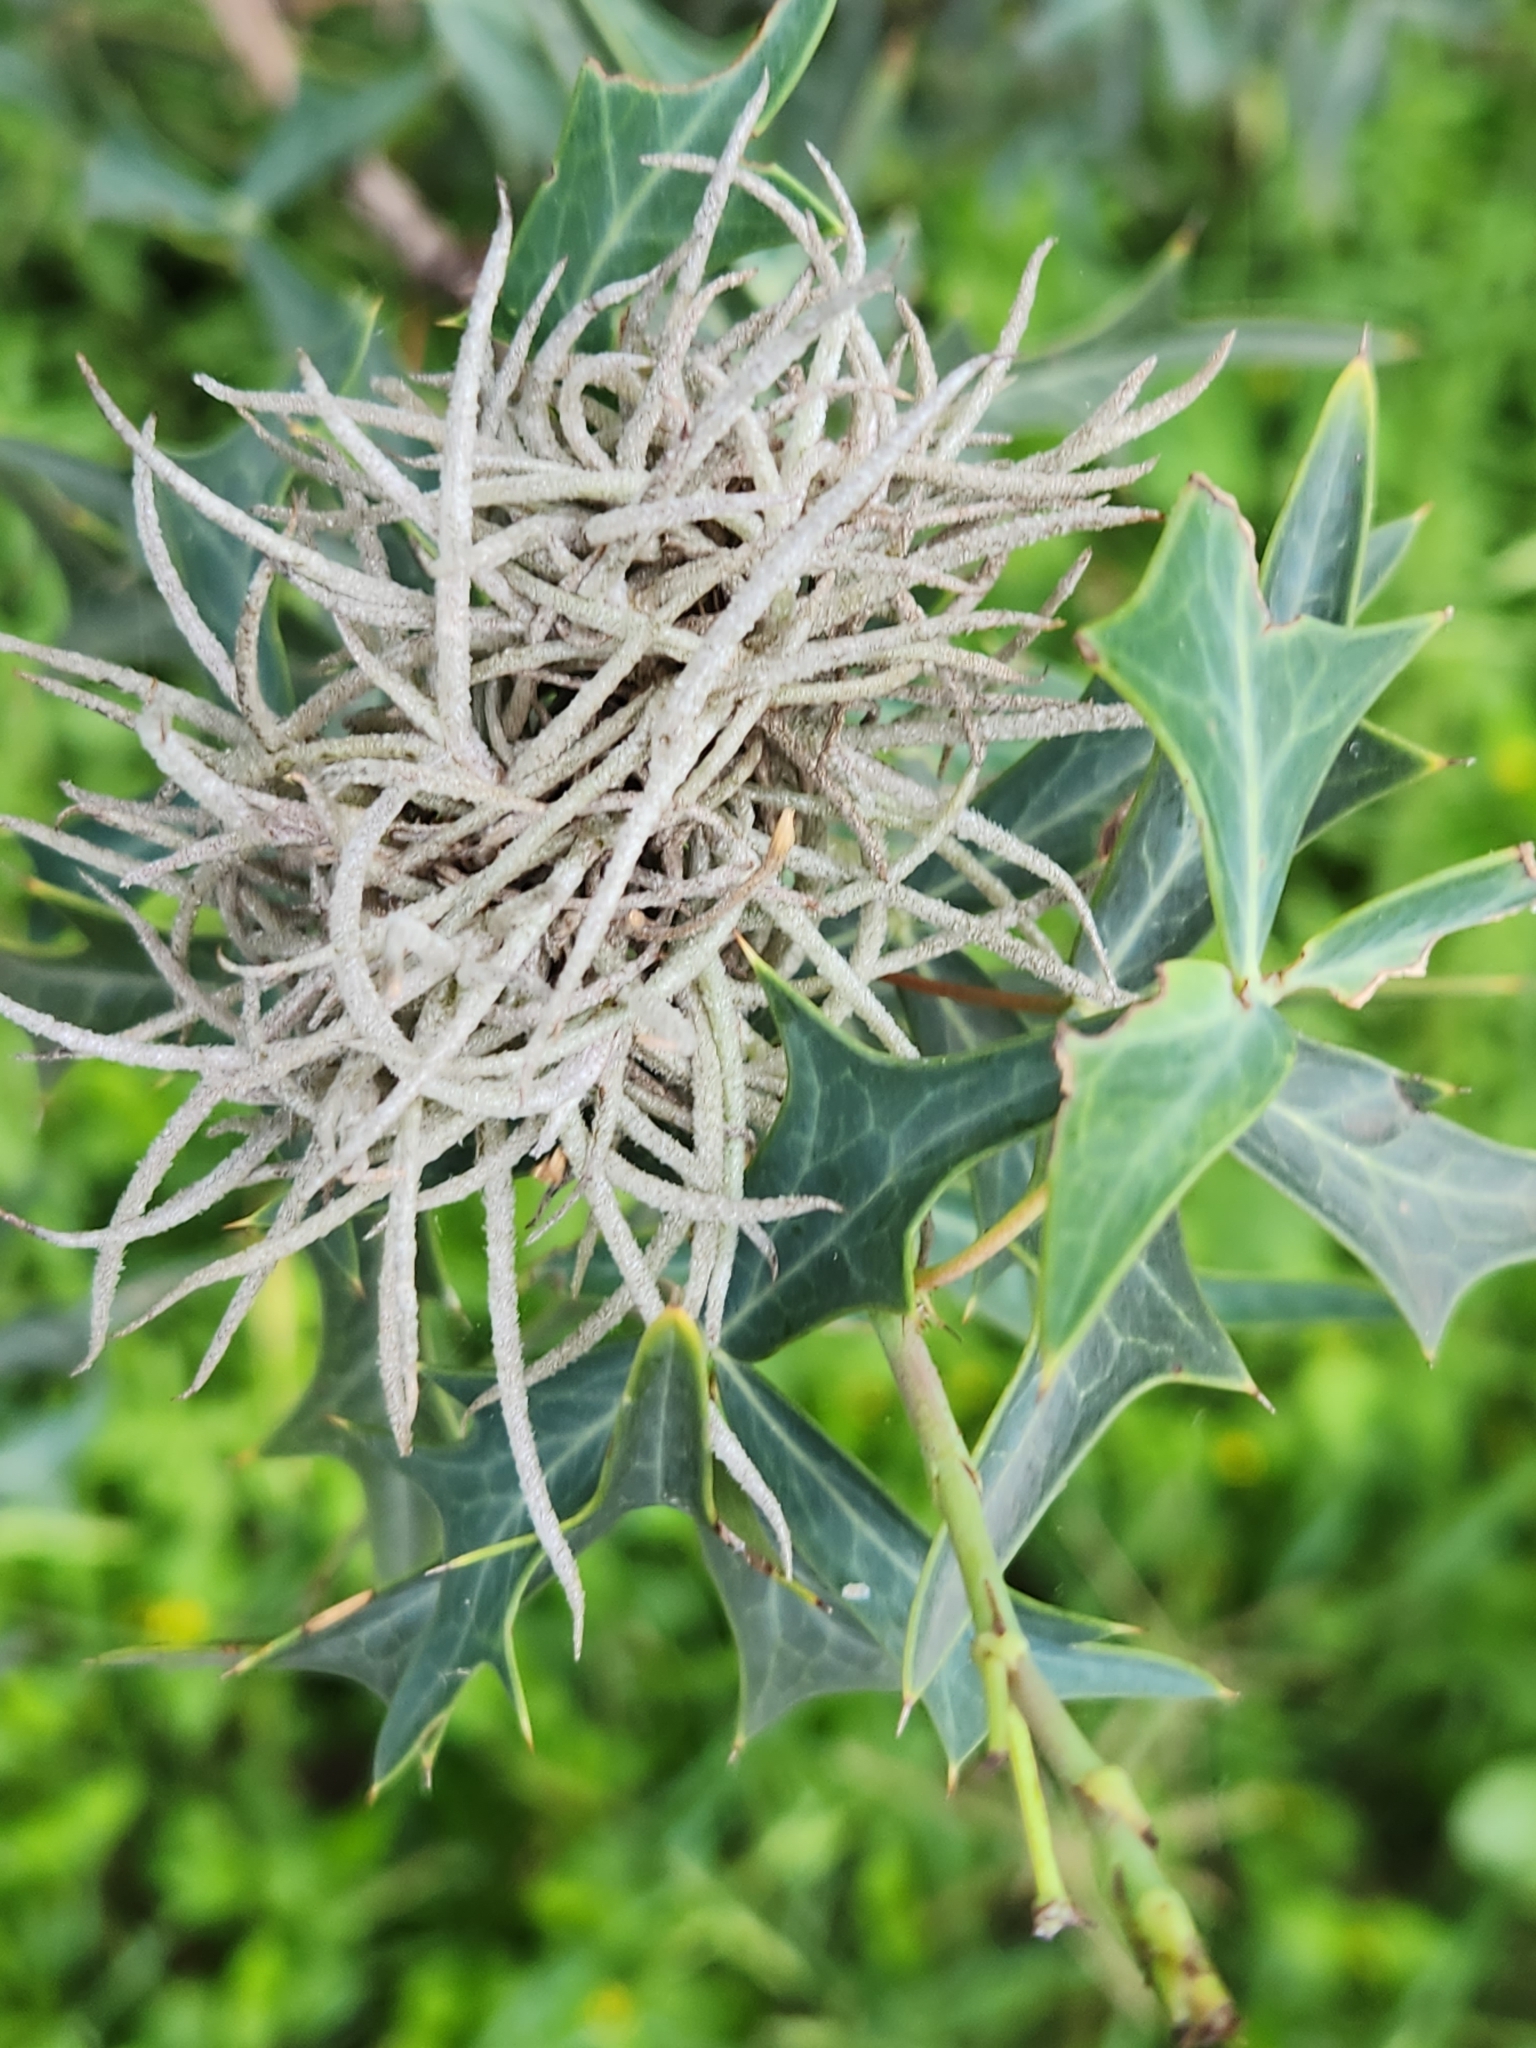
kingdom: Plantae
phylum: Tracheophyta
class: Liliopsida
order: Poales
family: Bromeliaceae
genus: Tillandsia
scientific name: Tillandsia recurvata
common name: Small ballmoss
